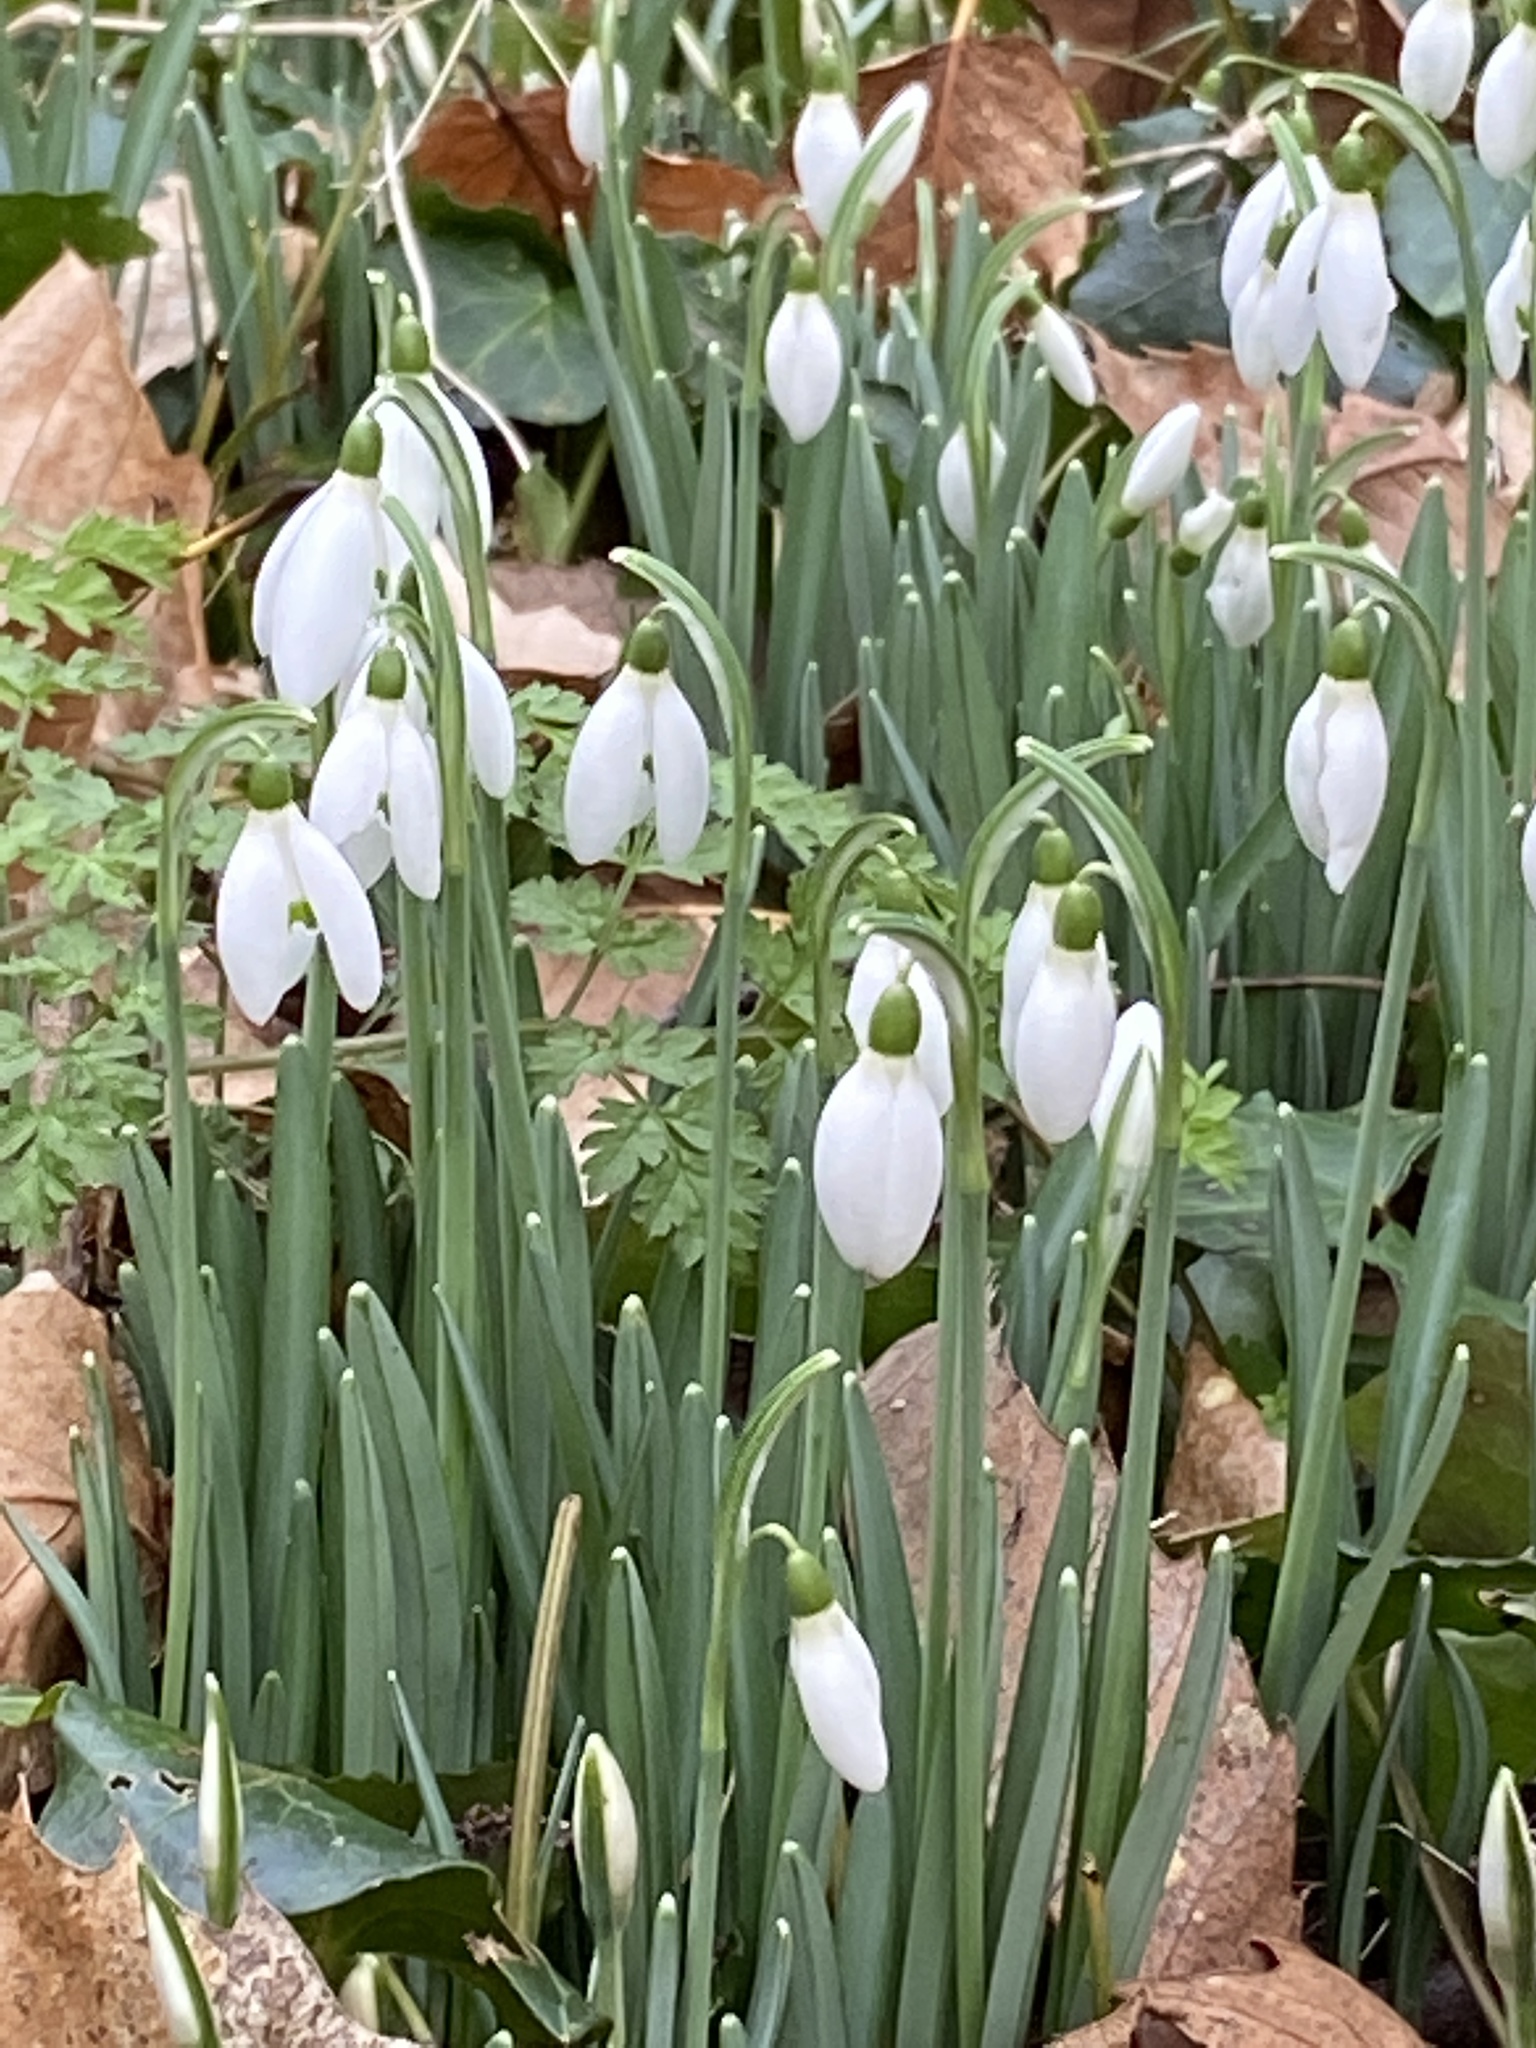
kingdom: Plantae
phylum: Tracheophyta
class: Liliopsida
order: Asparagales
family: Amaryllidaceae
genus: Galanthus
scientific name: Galanthus nivalis
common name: Snowdrop
